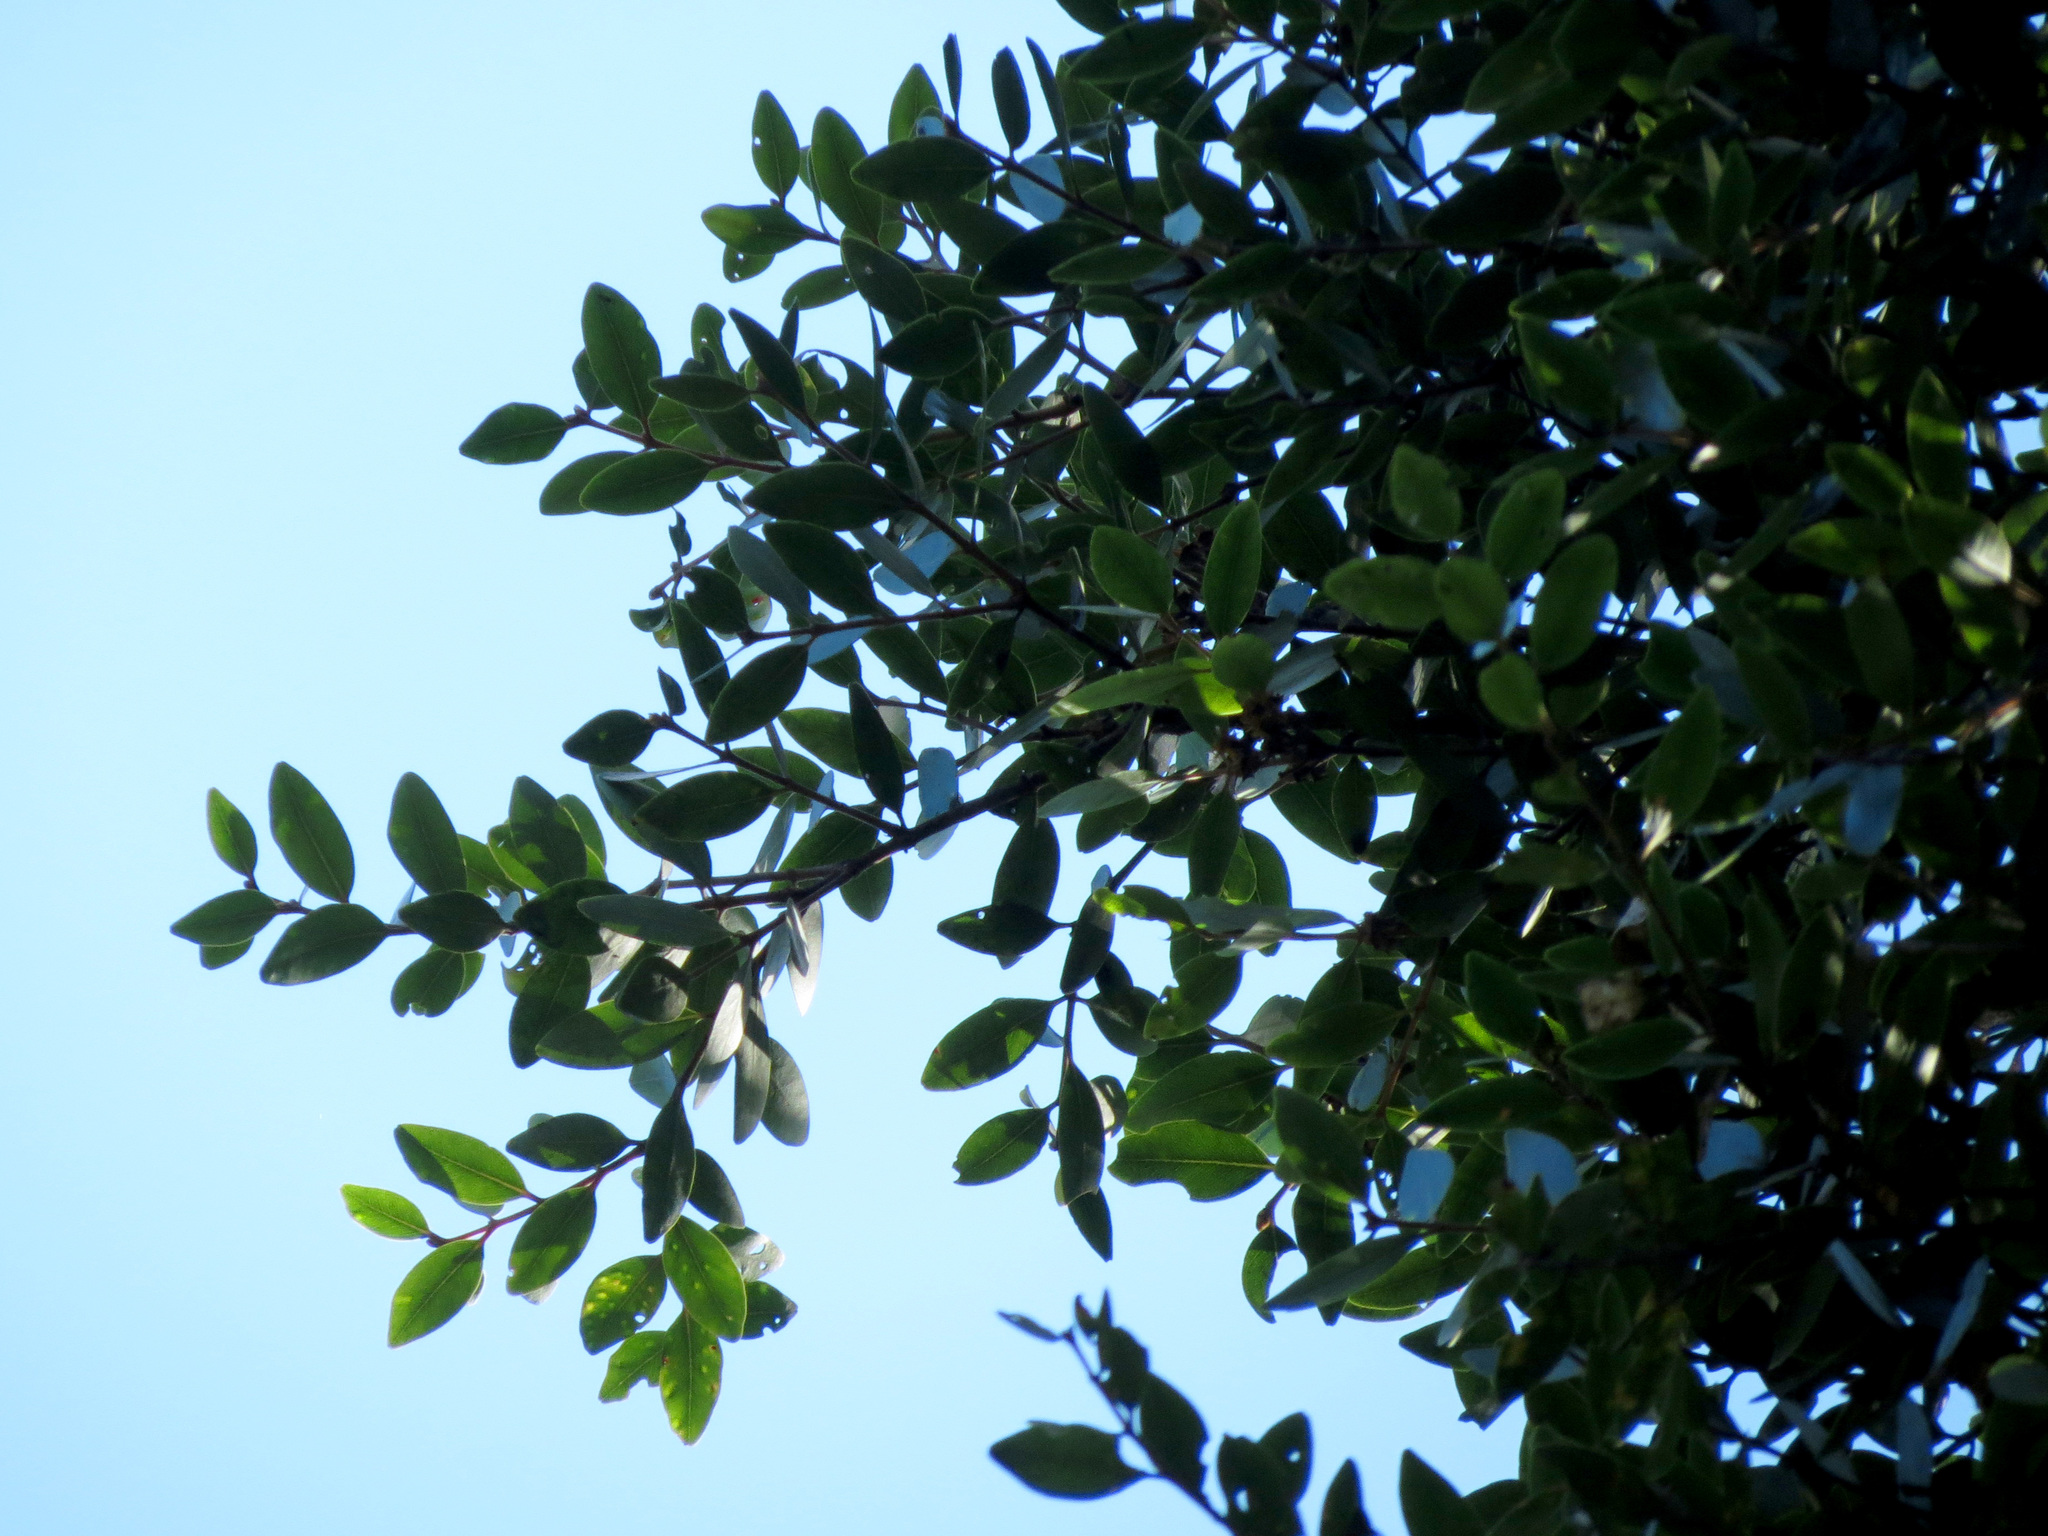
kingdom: Plantae
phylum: Tracheophyta
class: Magnoliopsida
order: Myrtales
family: Myrtaceae
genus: Metrosideros
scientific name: Metrosideros robusta
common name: Northern rata
